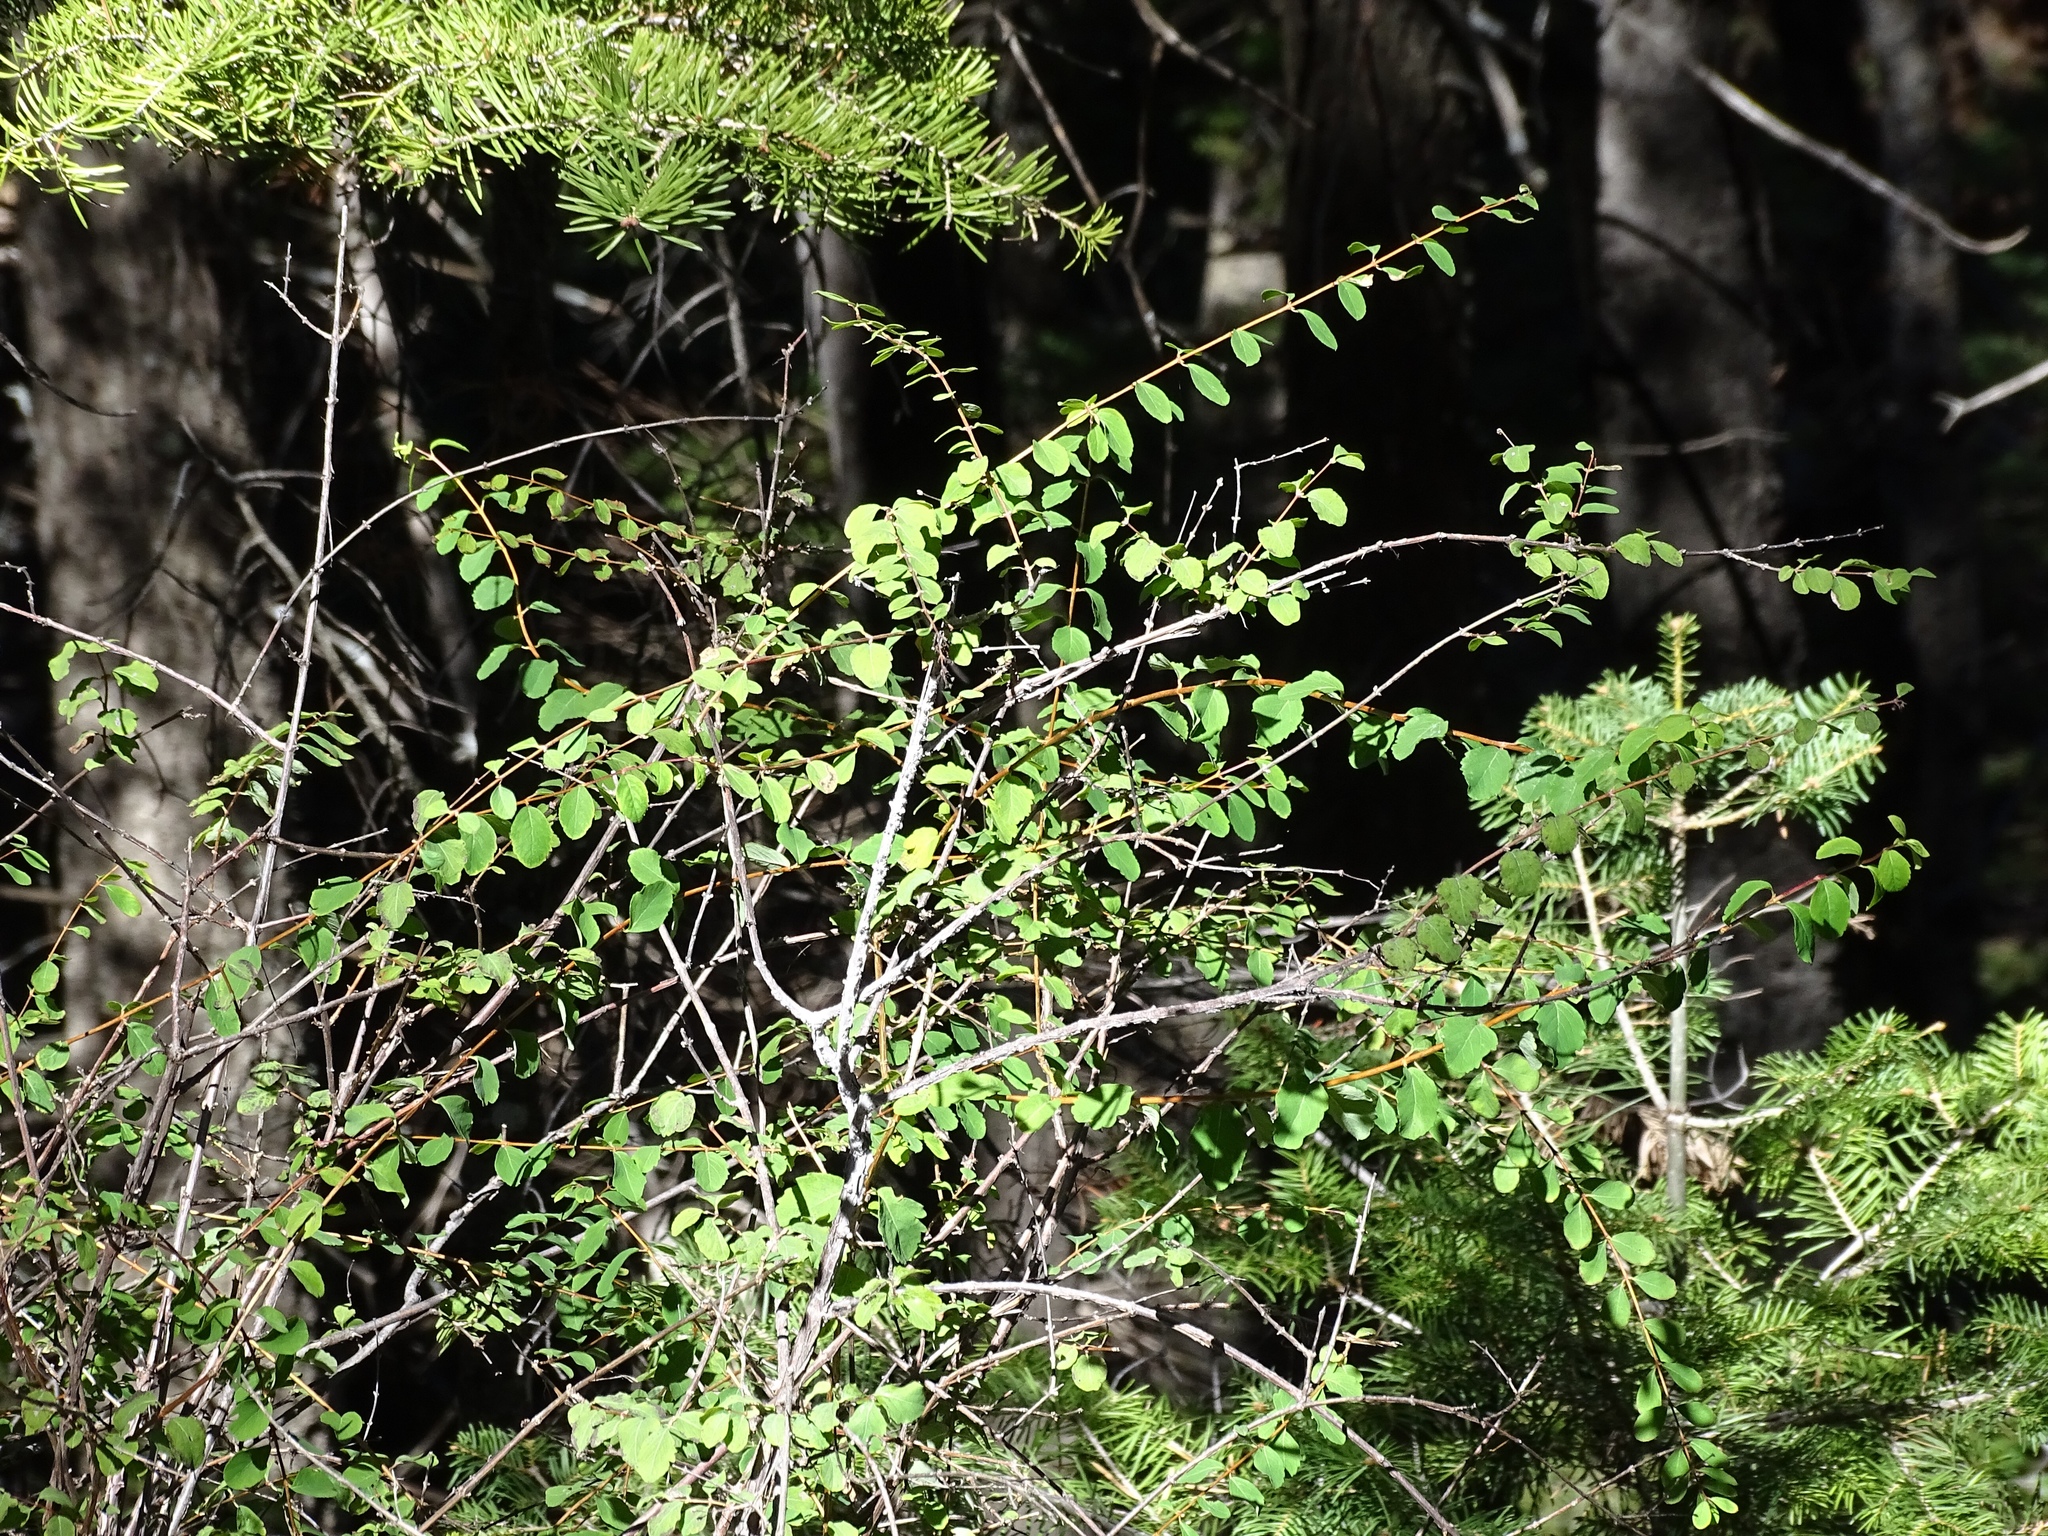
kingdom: Plantae
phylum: Tracheophyta
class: Magnoliopsida
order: Rosales
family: Rosaceae
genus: Amelanchier
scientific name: Amelanchier utahensis
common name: Utah serviceberry
